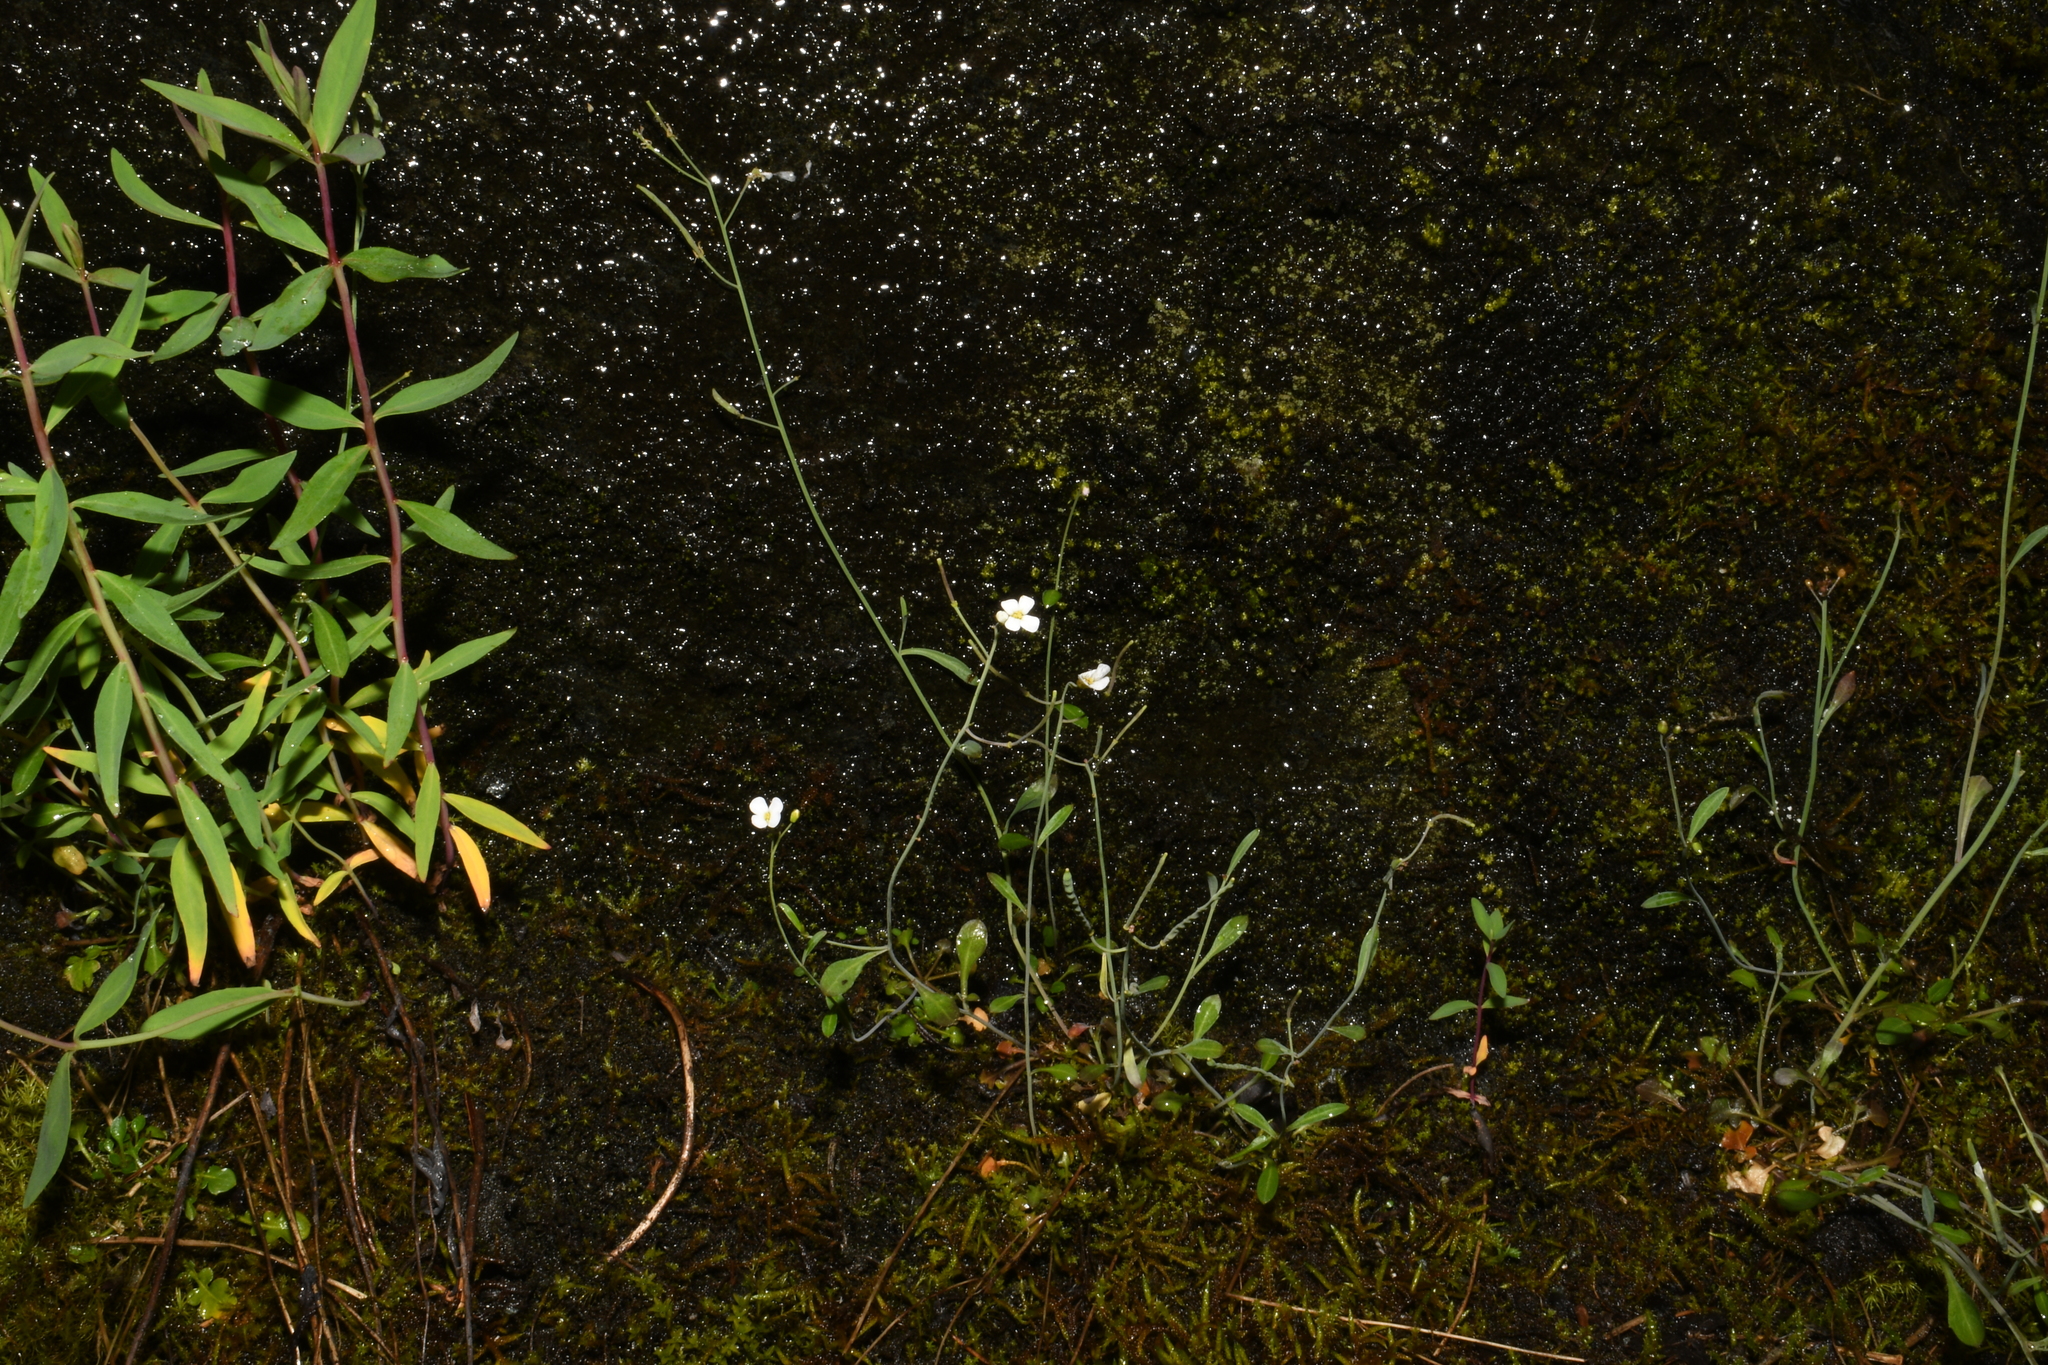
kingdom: Plantae
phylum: Tracheophyta
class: Magnoliopsida
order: Brassicales
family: Brassicaceae
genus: Arabidopsis
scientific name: Arabidopsis lyrata
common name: Lyrate rockcress
